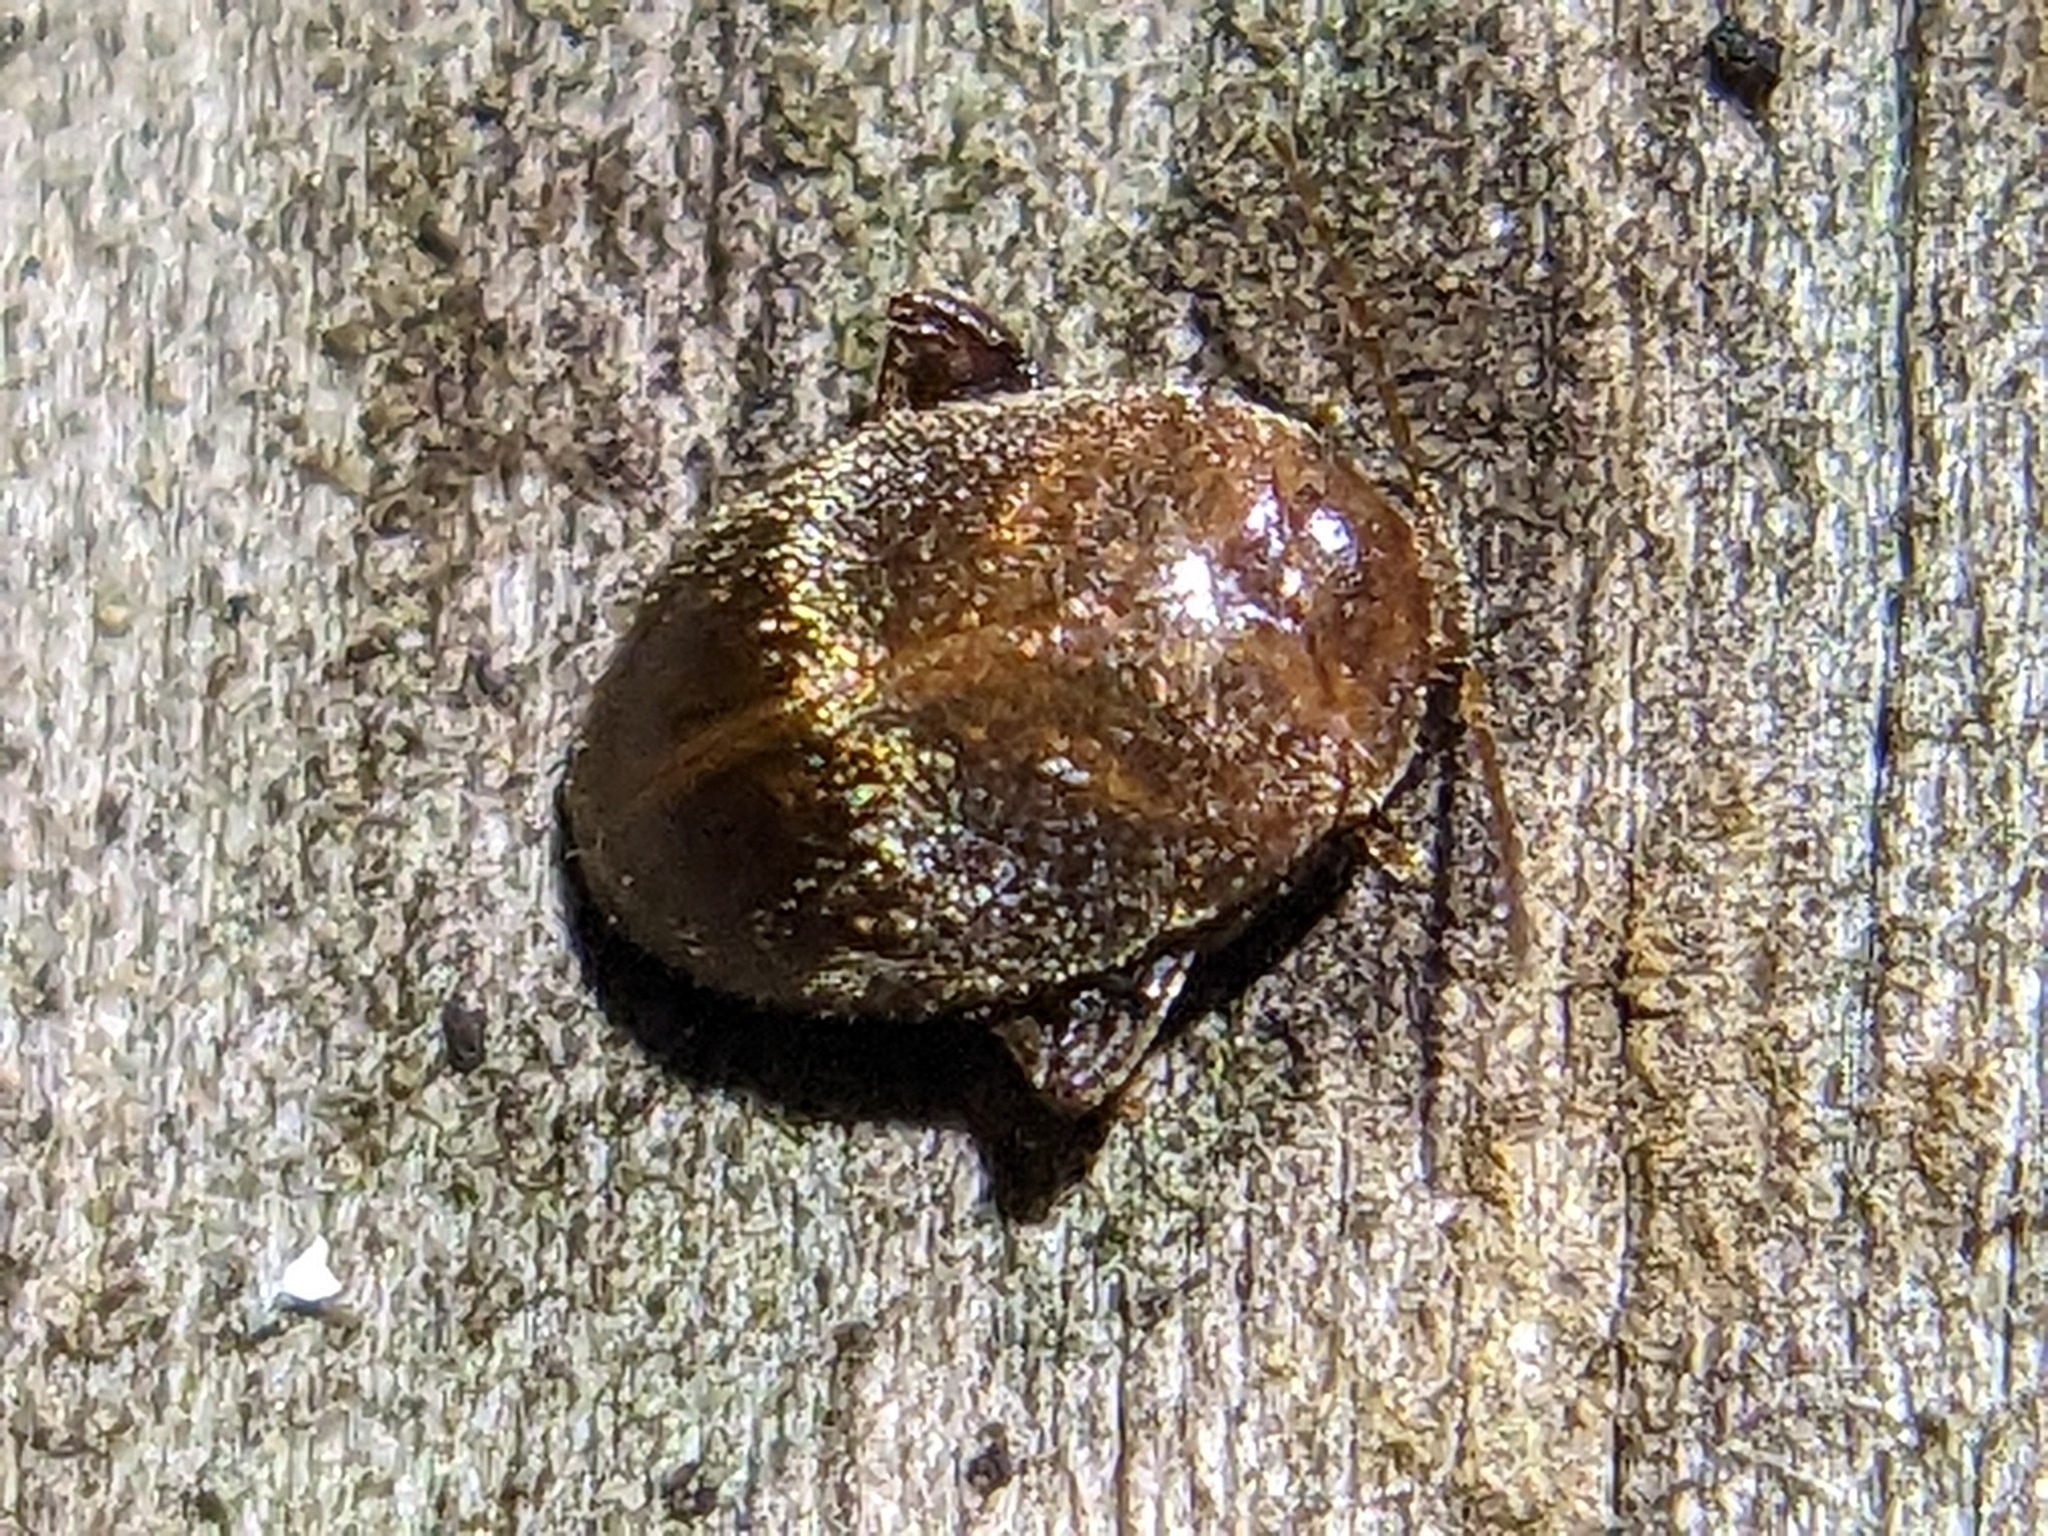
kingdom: Animalia
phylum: Arthropoda
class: Insecta
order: Coleoptera
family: Scirtidae
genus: Scirtes
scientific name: Scirtes tibialis
